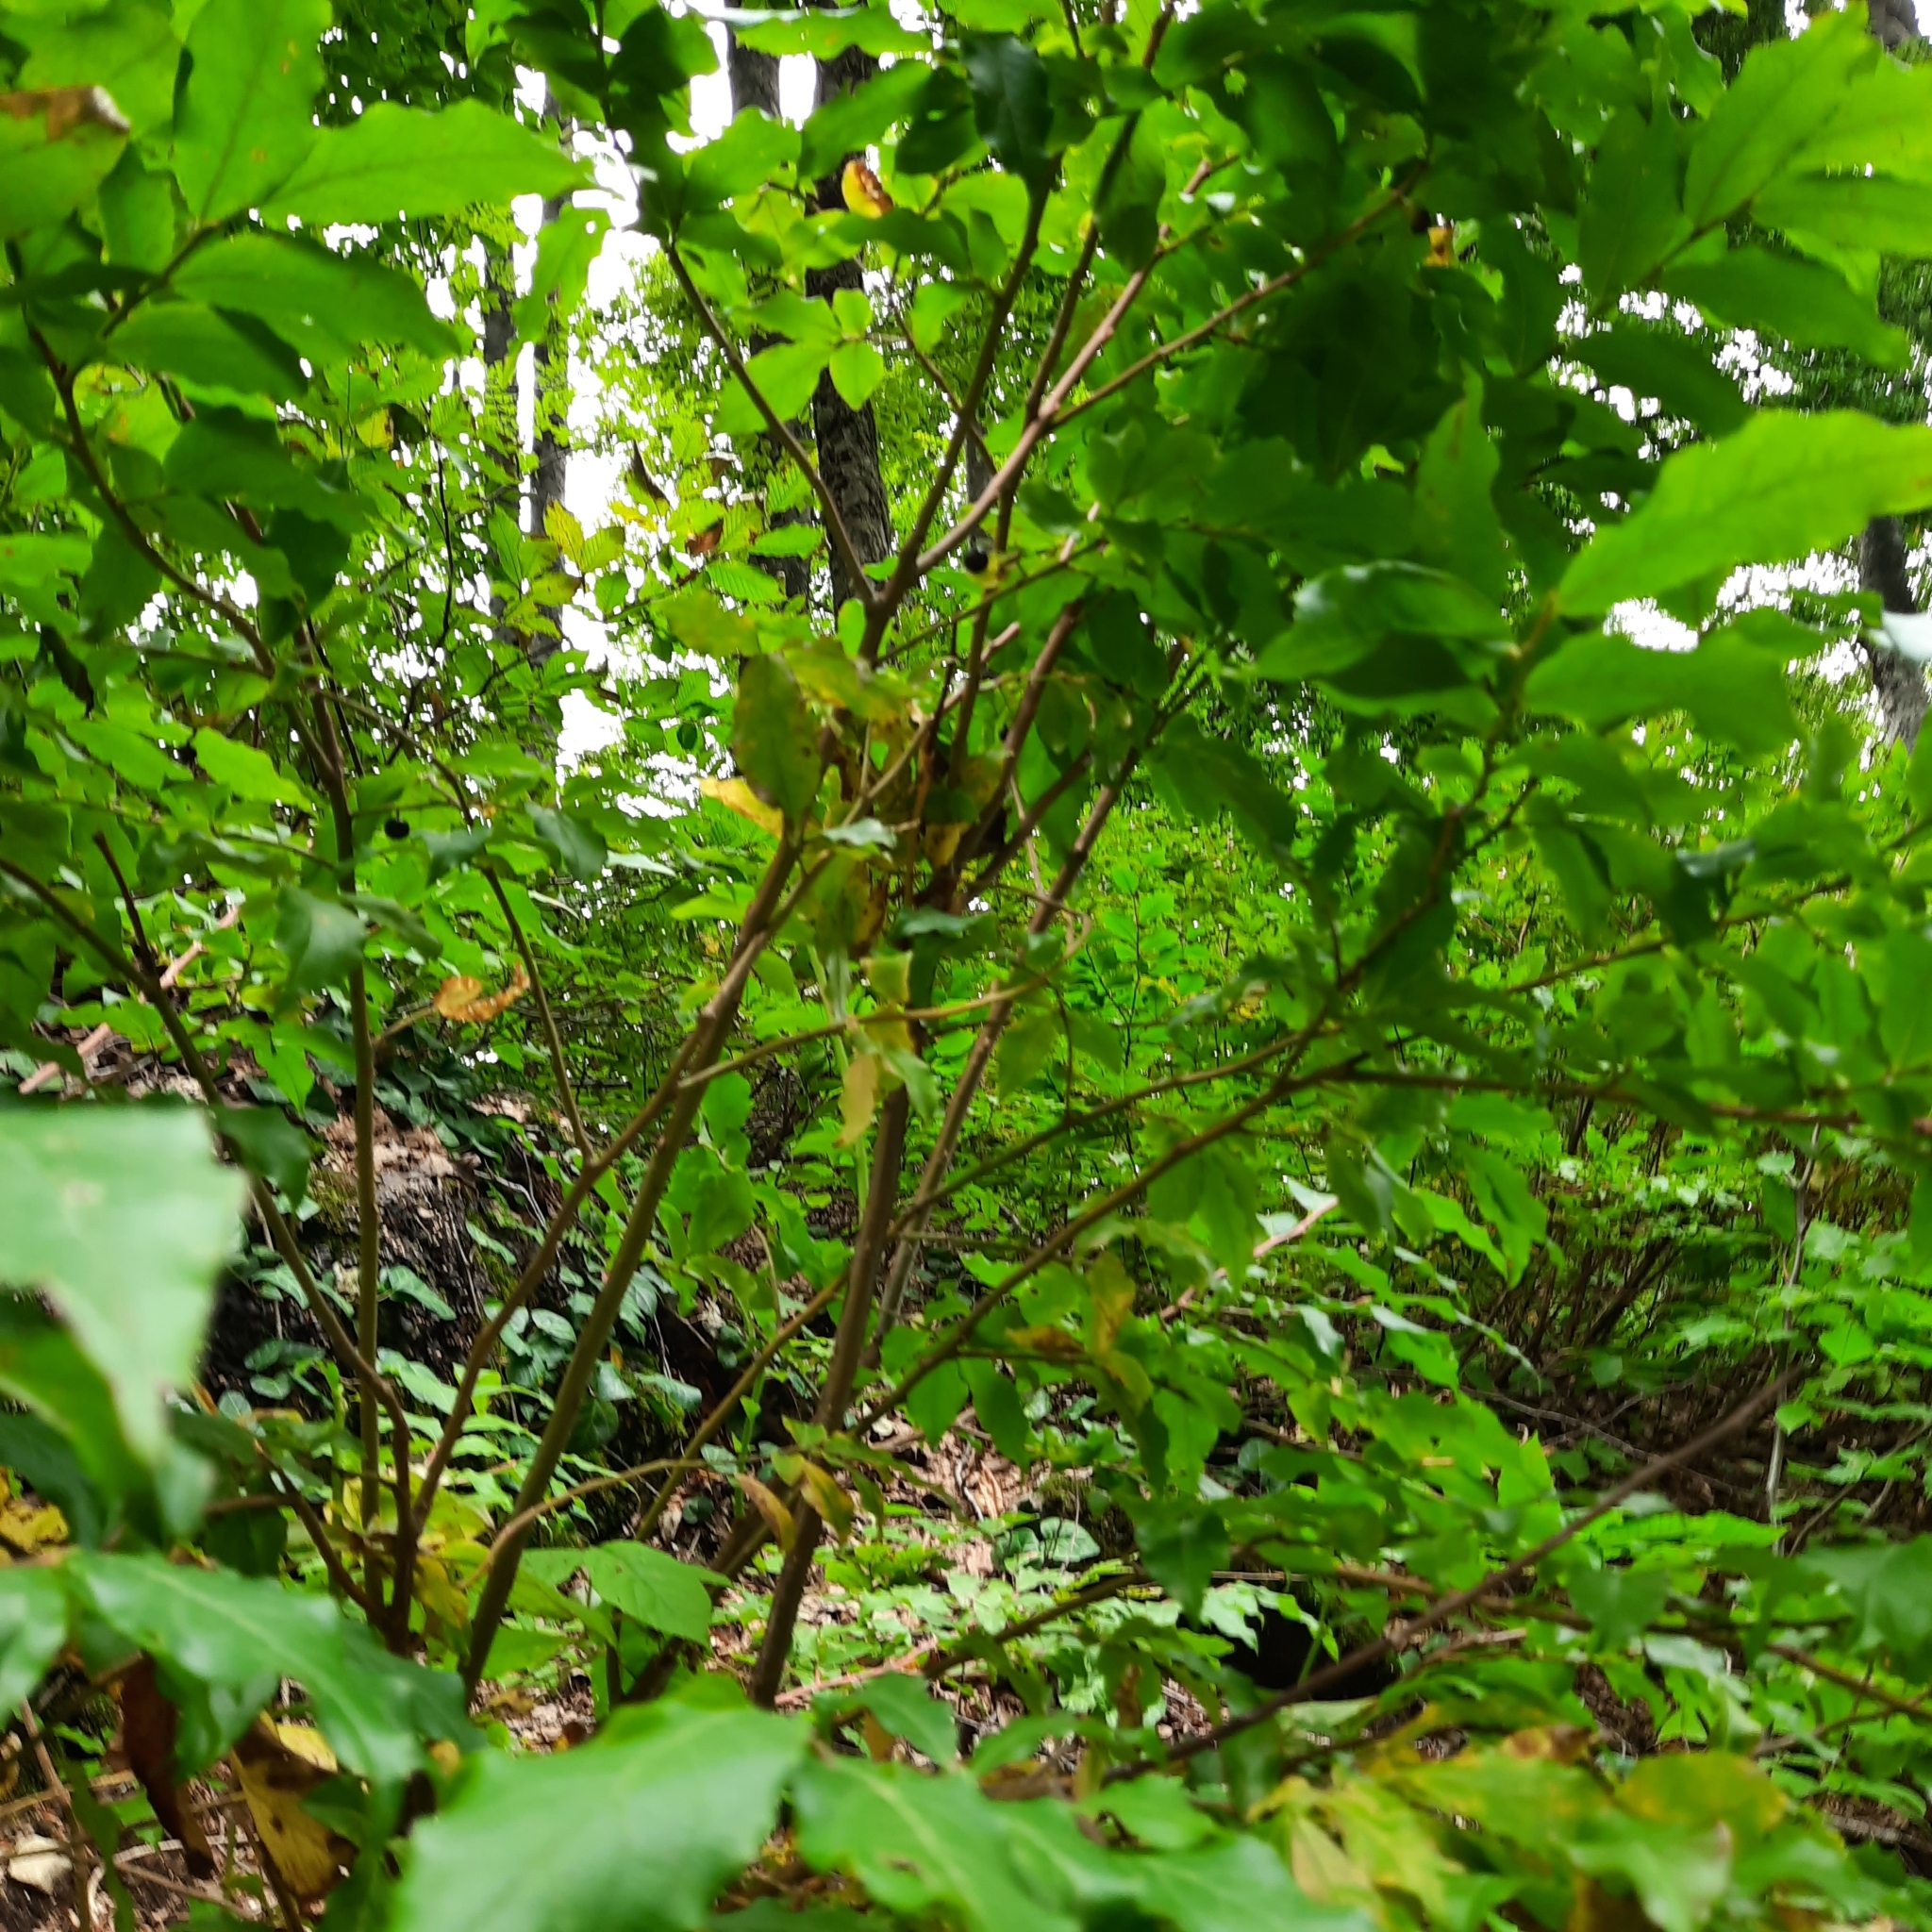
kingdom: Plantae
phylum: Tracheophyta
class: Magnoliopsida
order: Ericales
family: Ericaceae
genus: Vaccinium
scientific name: Vaccinium arctostaphylos
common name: Caucasian whortleberry
